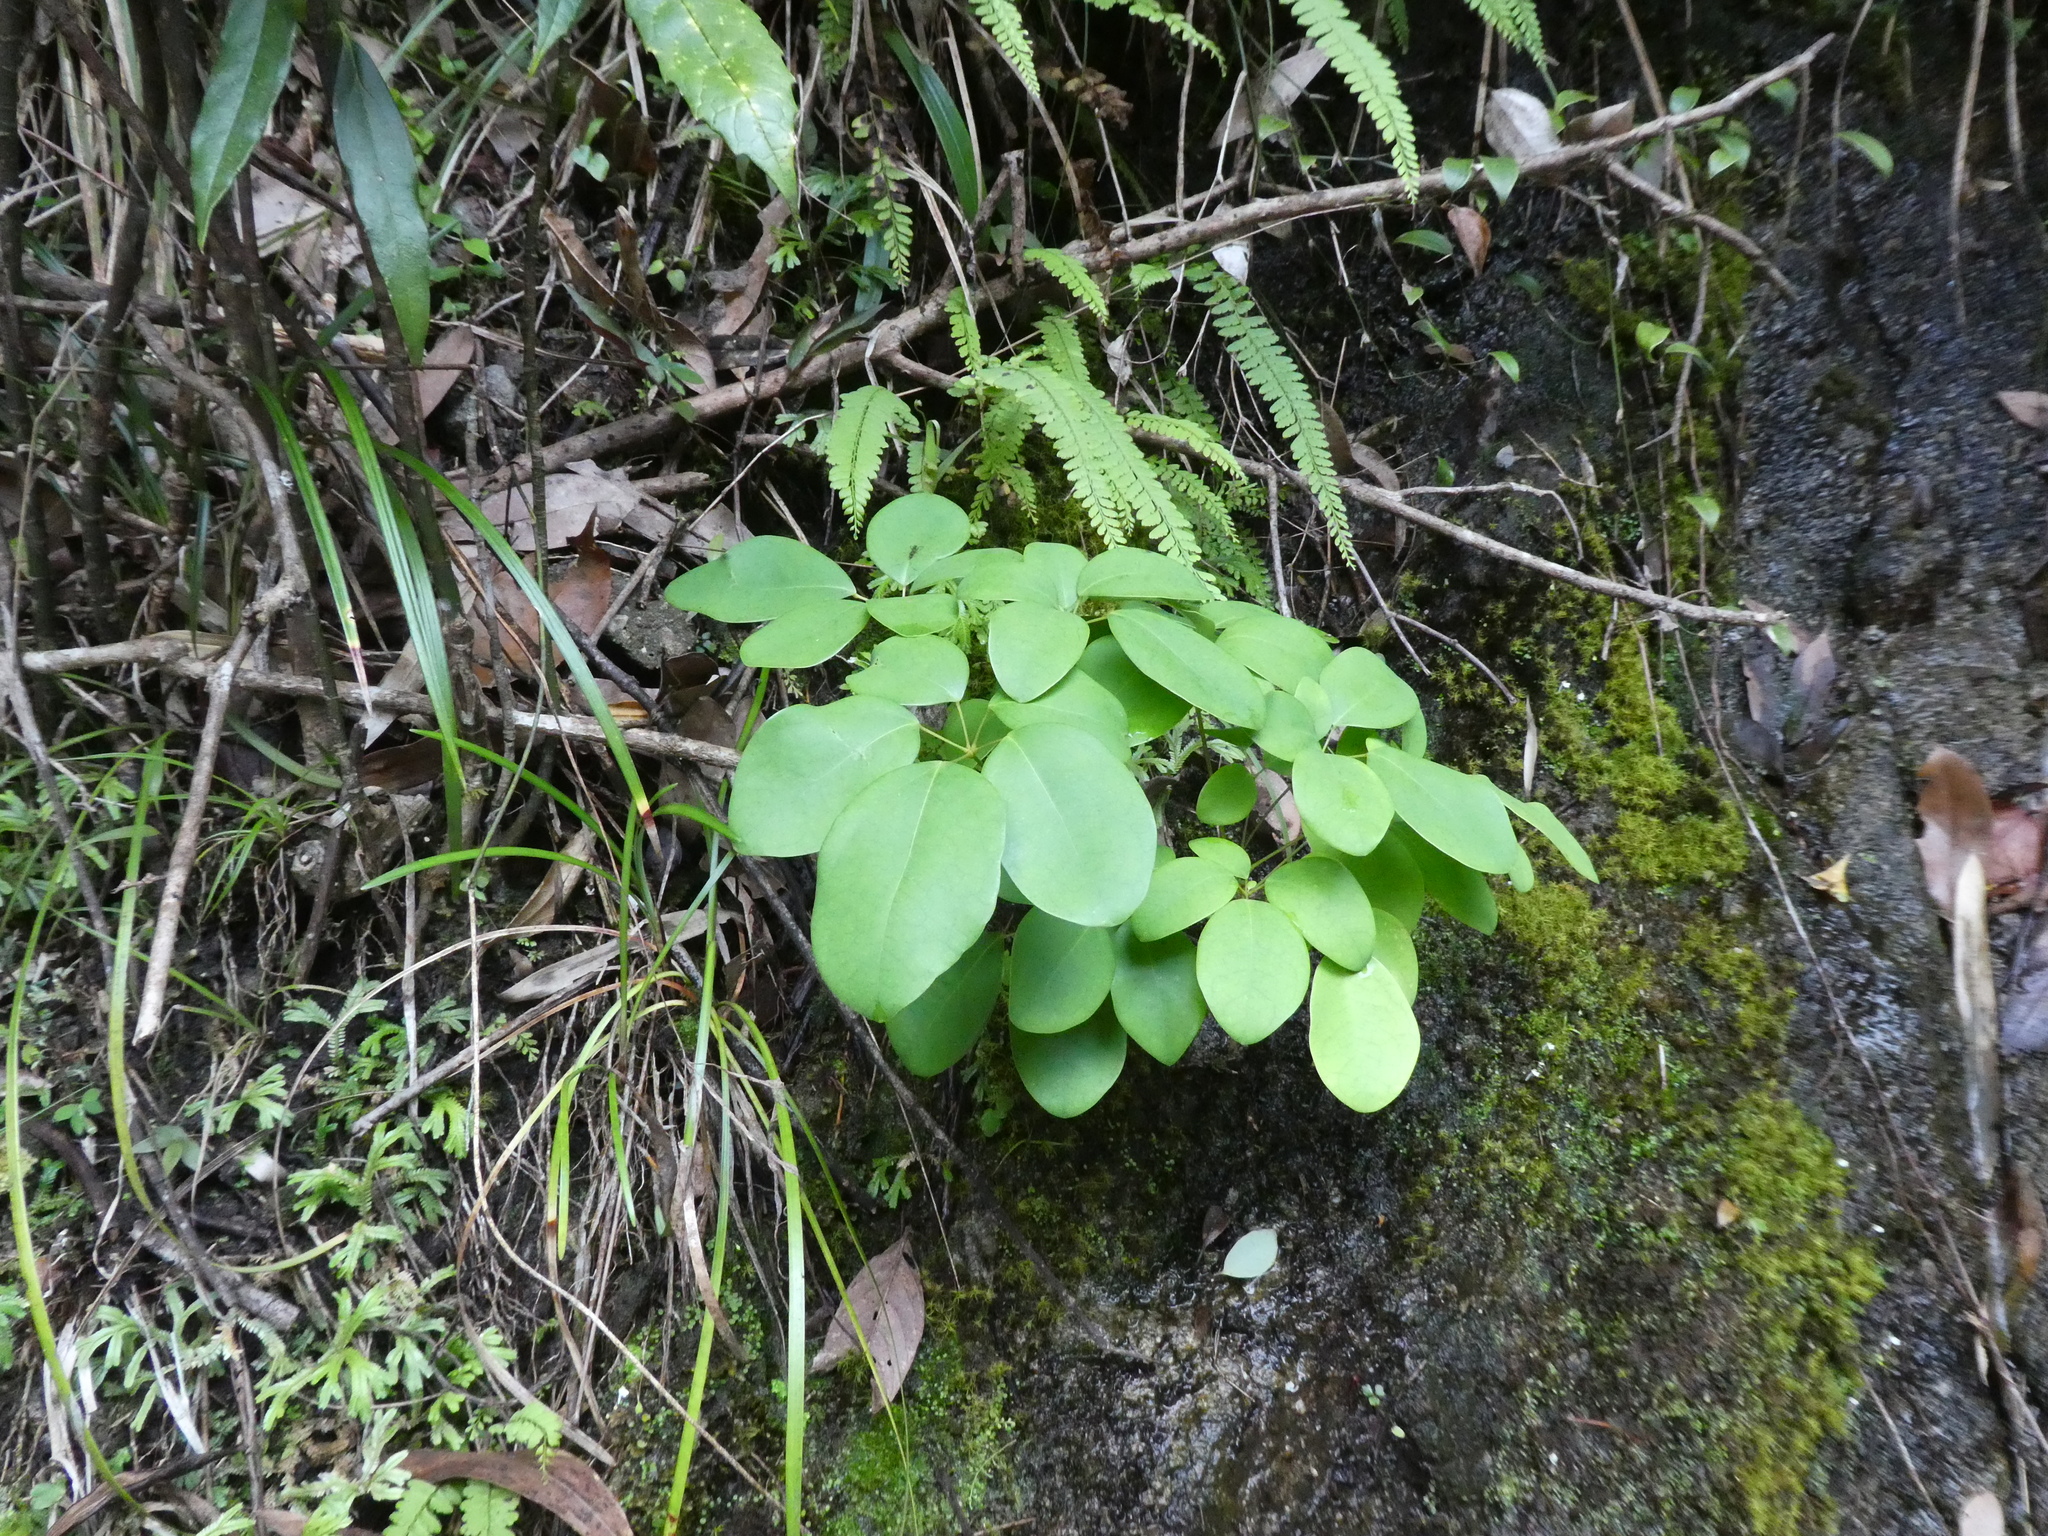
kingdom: Plantae
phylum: Tracheophyta
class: Magnoliopsida
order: Ranunculales
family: Lardizabalaceae
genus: Stauntonia
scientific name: Stauntonia obovata
